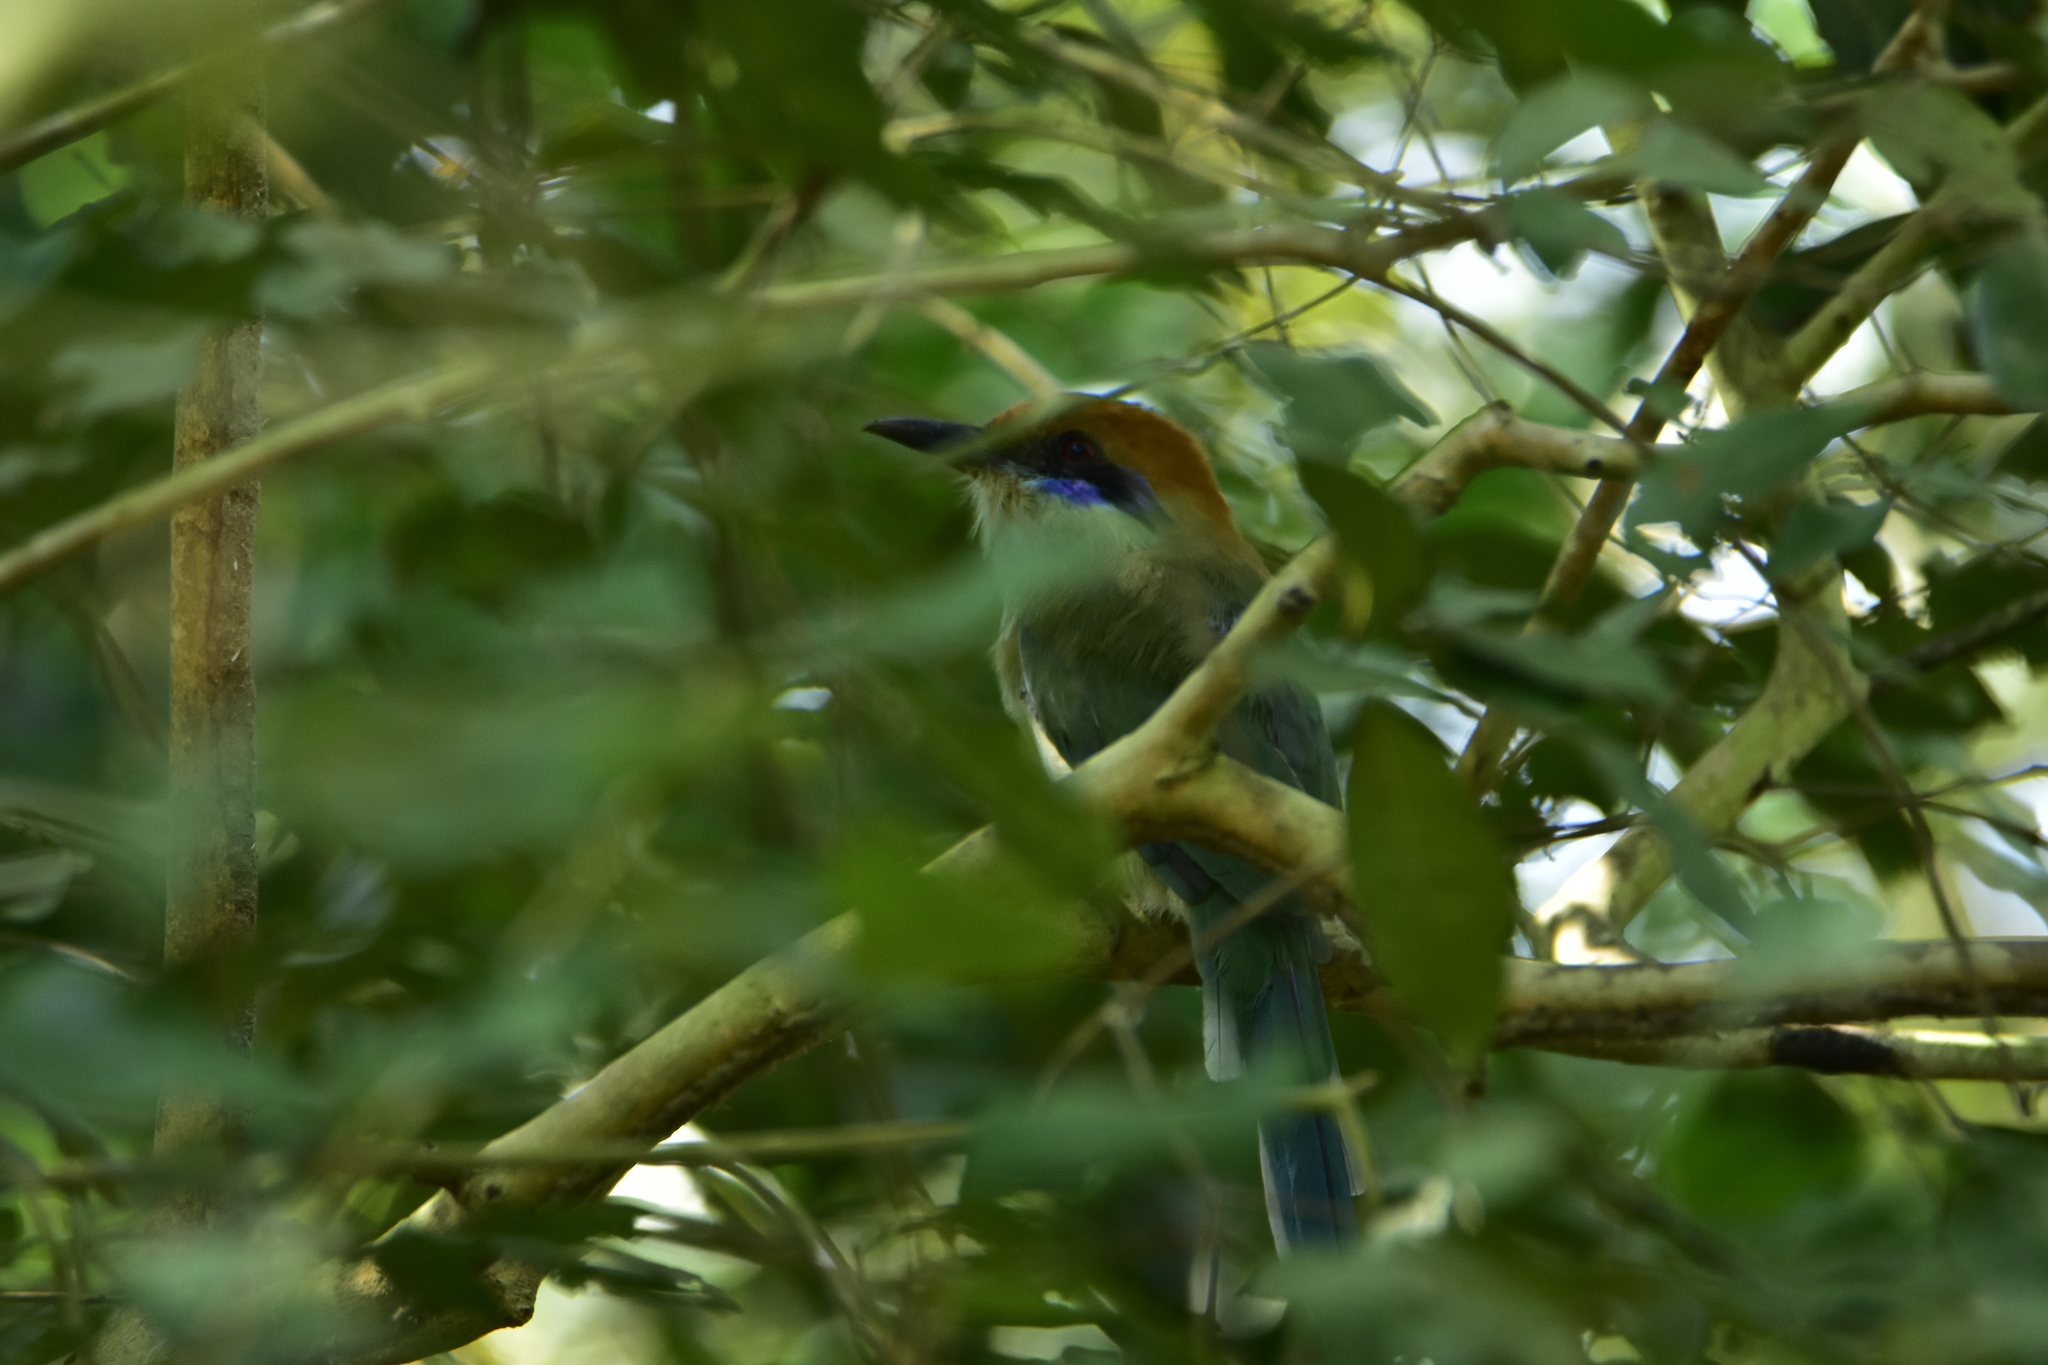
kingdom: Animalia
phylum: Chordata
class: Aves
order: Coraciiformes
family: Momotidae
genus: Momotus
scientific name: Momotus mexicanus
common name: Russet-crowned motmot
